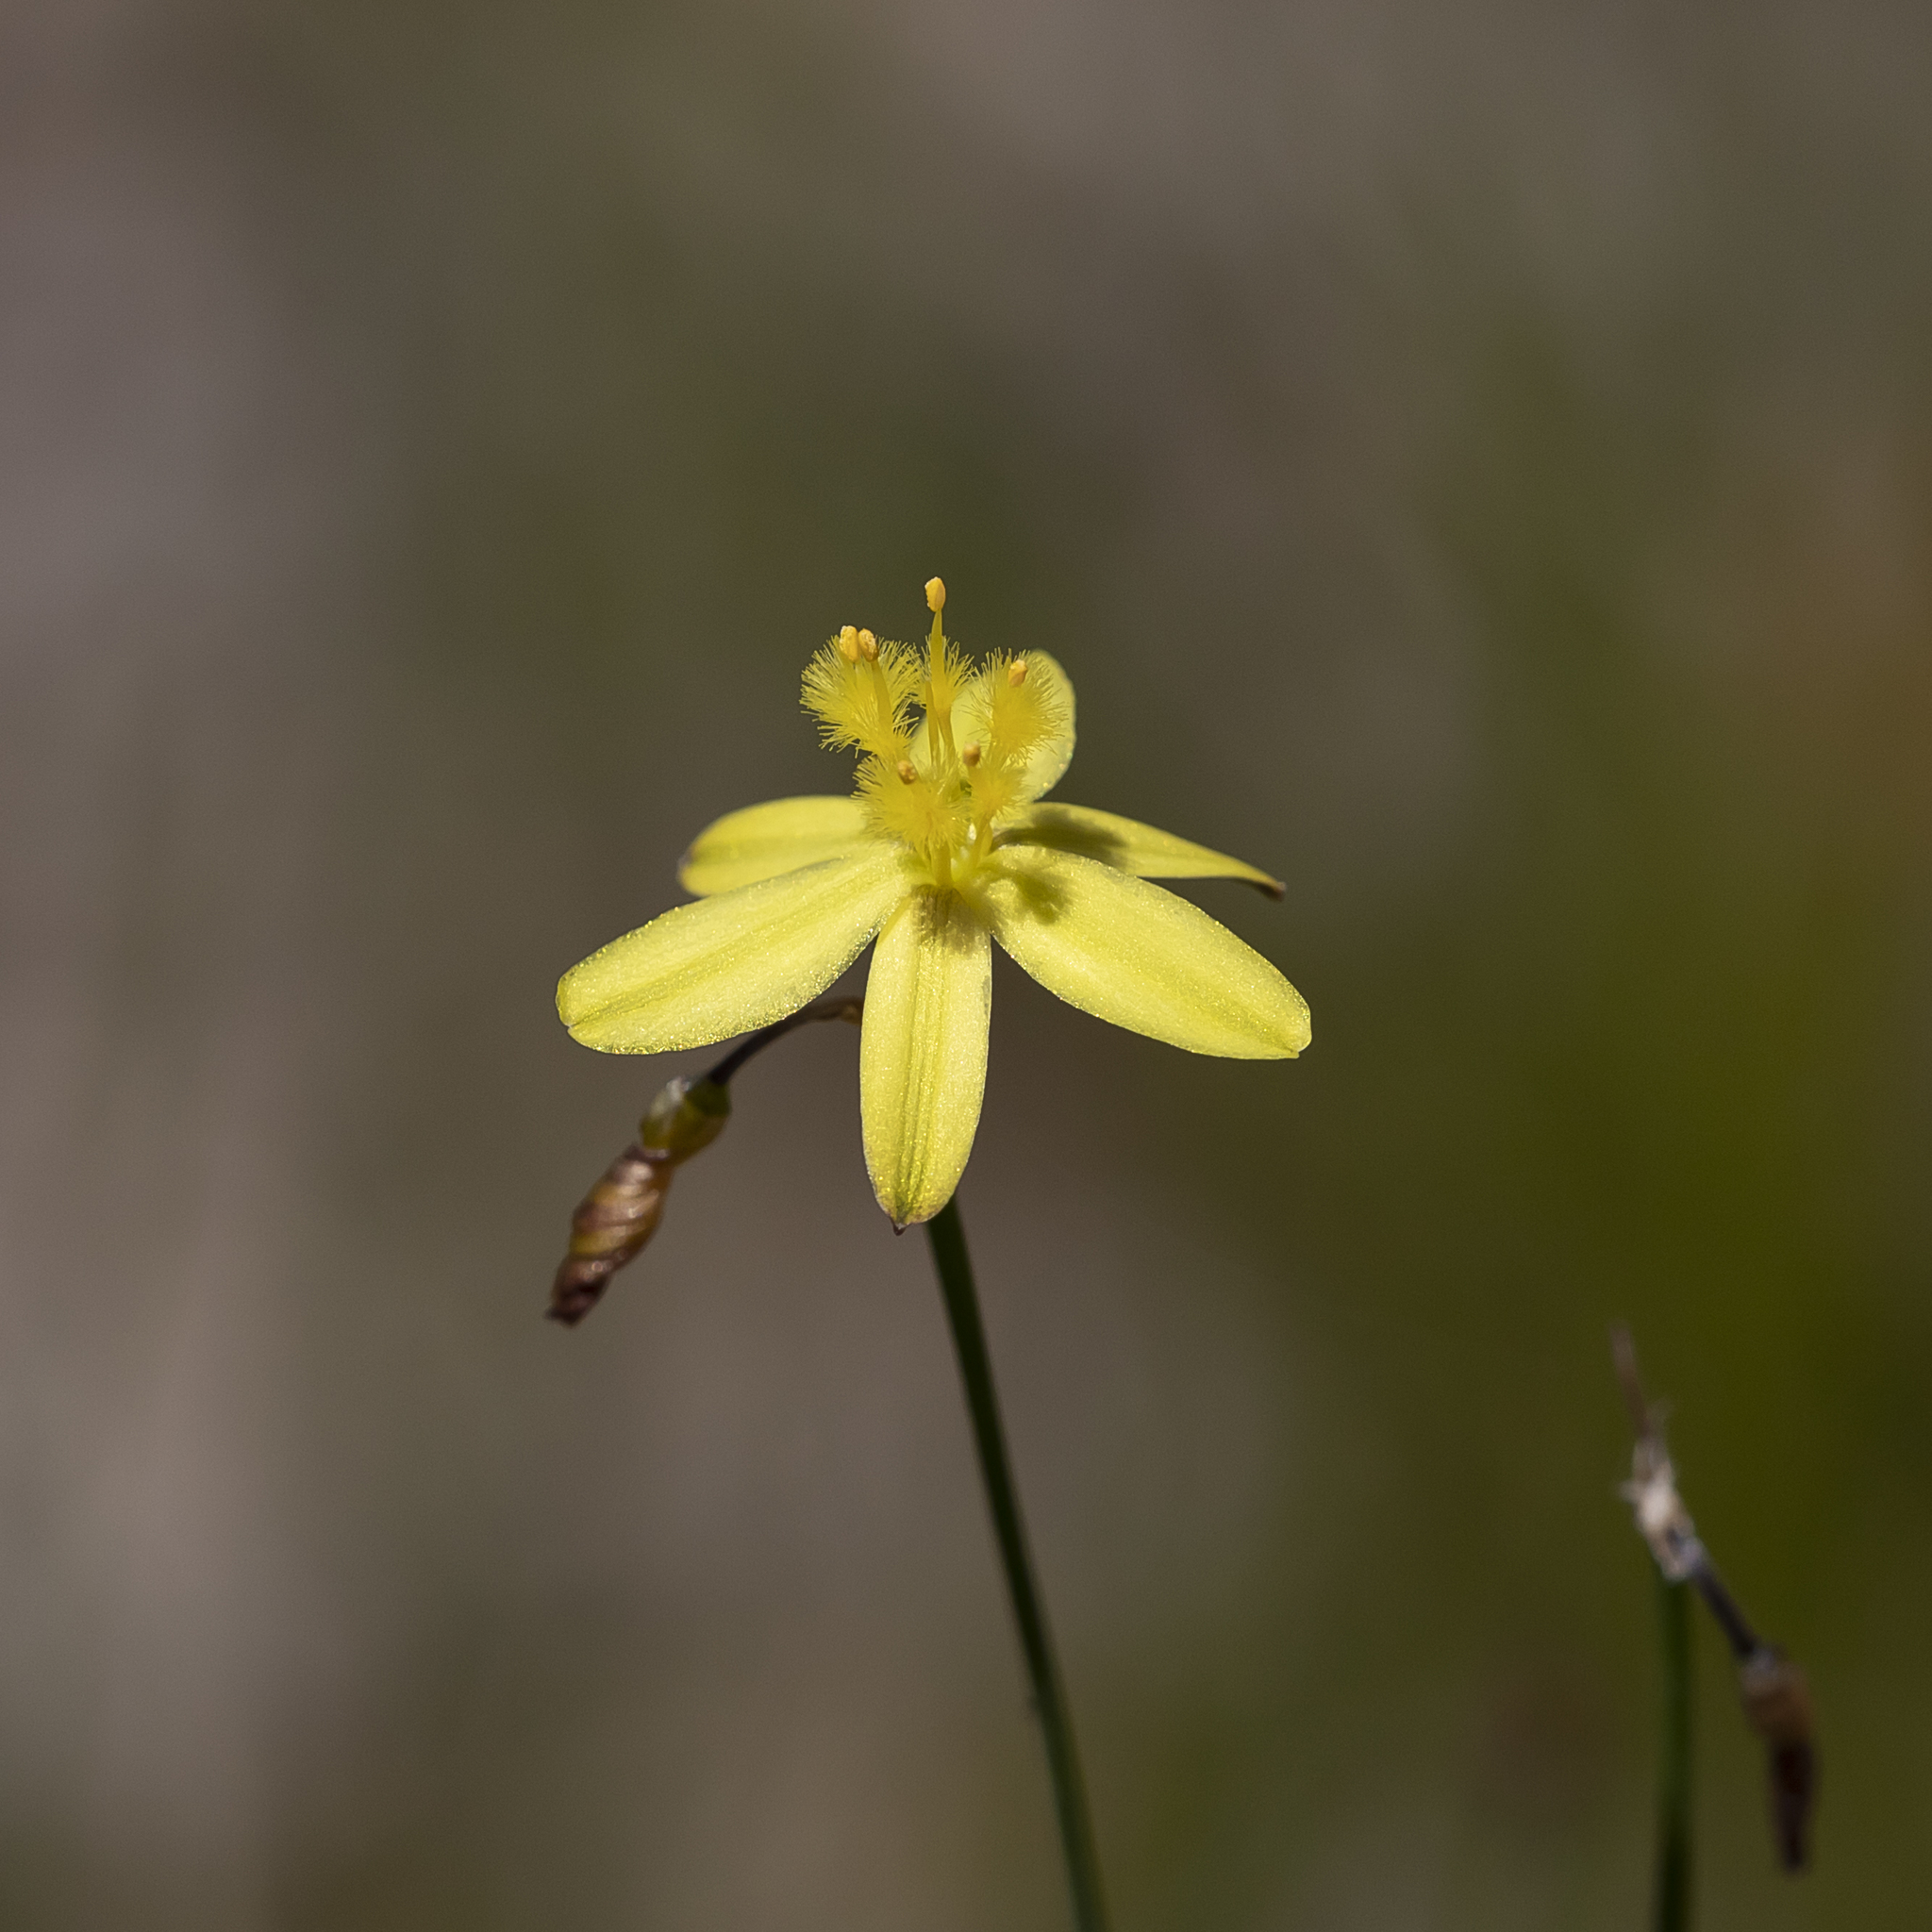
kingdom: Plantae
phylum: Tracheophyta
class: Liliopsida
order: Asparagales
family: Asphodelaceae
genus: Tricoryne
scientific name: Tricoryne elatior
